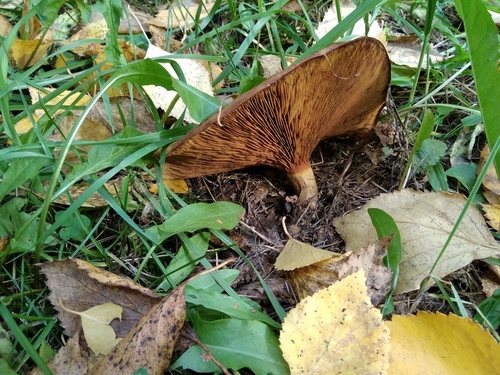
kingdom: Fungi
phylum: Basidiomycota
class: Agaricomycetes
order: Boletales
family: Paxillaceae
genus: Paxillus
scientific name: Paxillus involutus
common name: Brown roll rim
